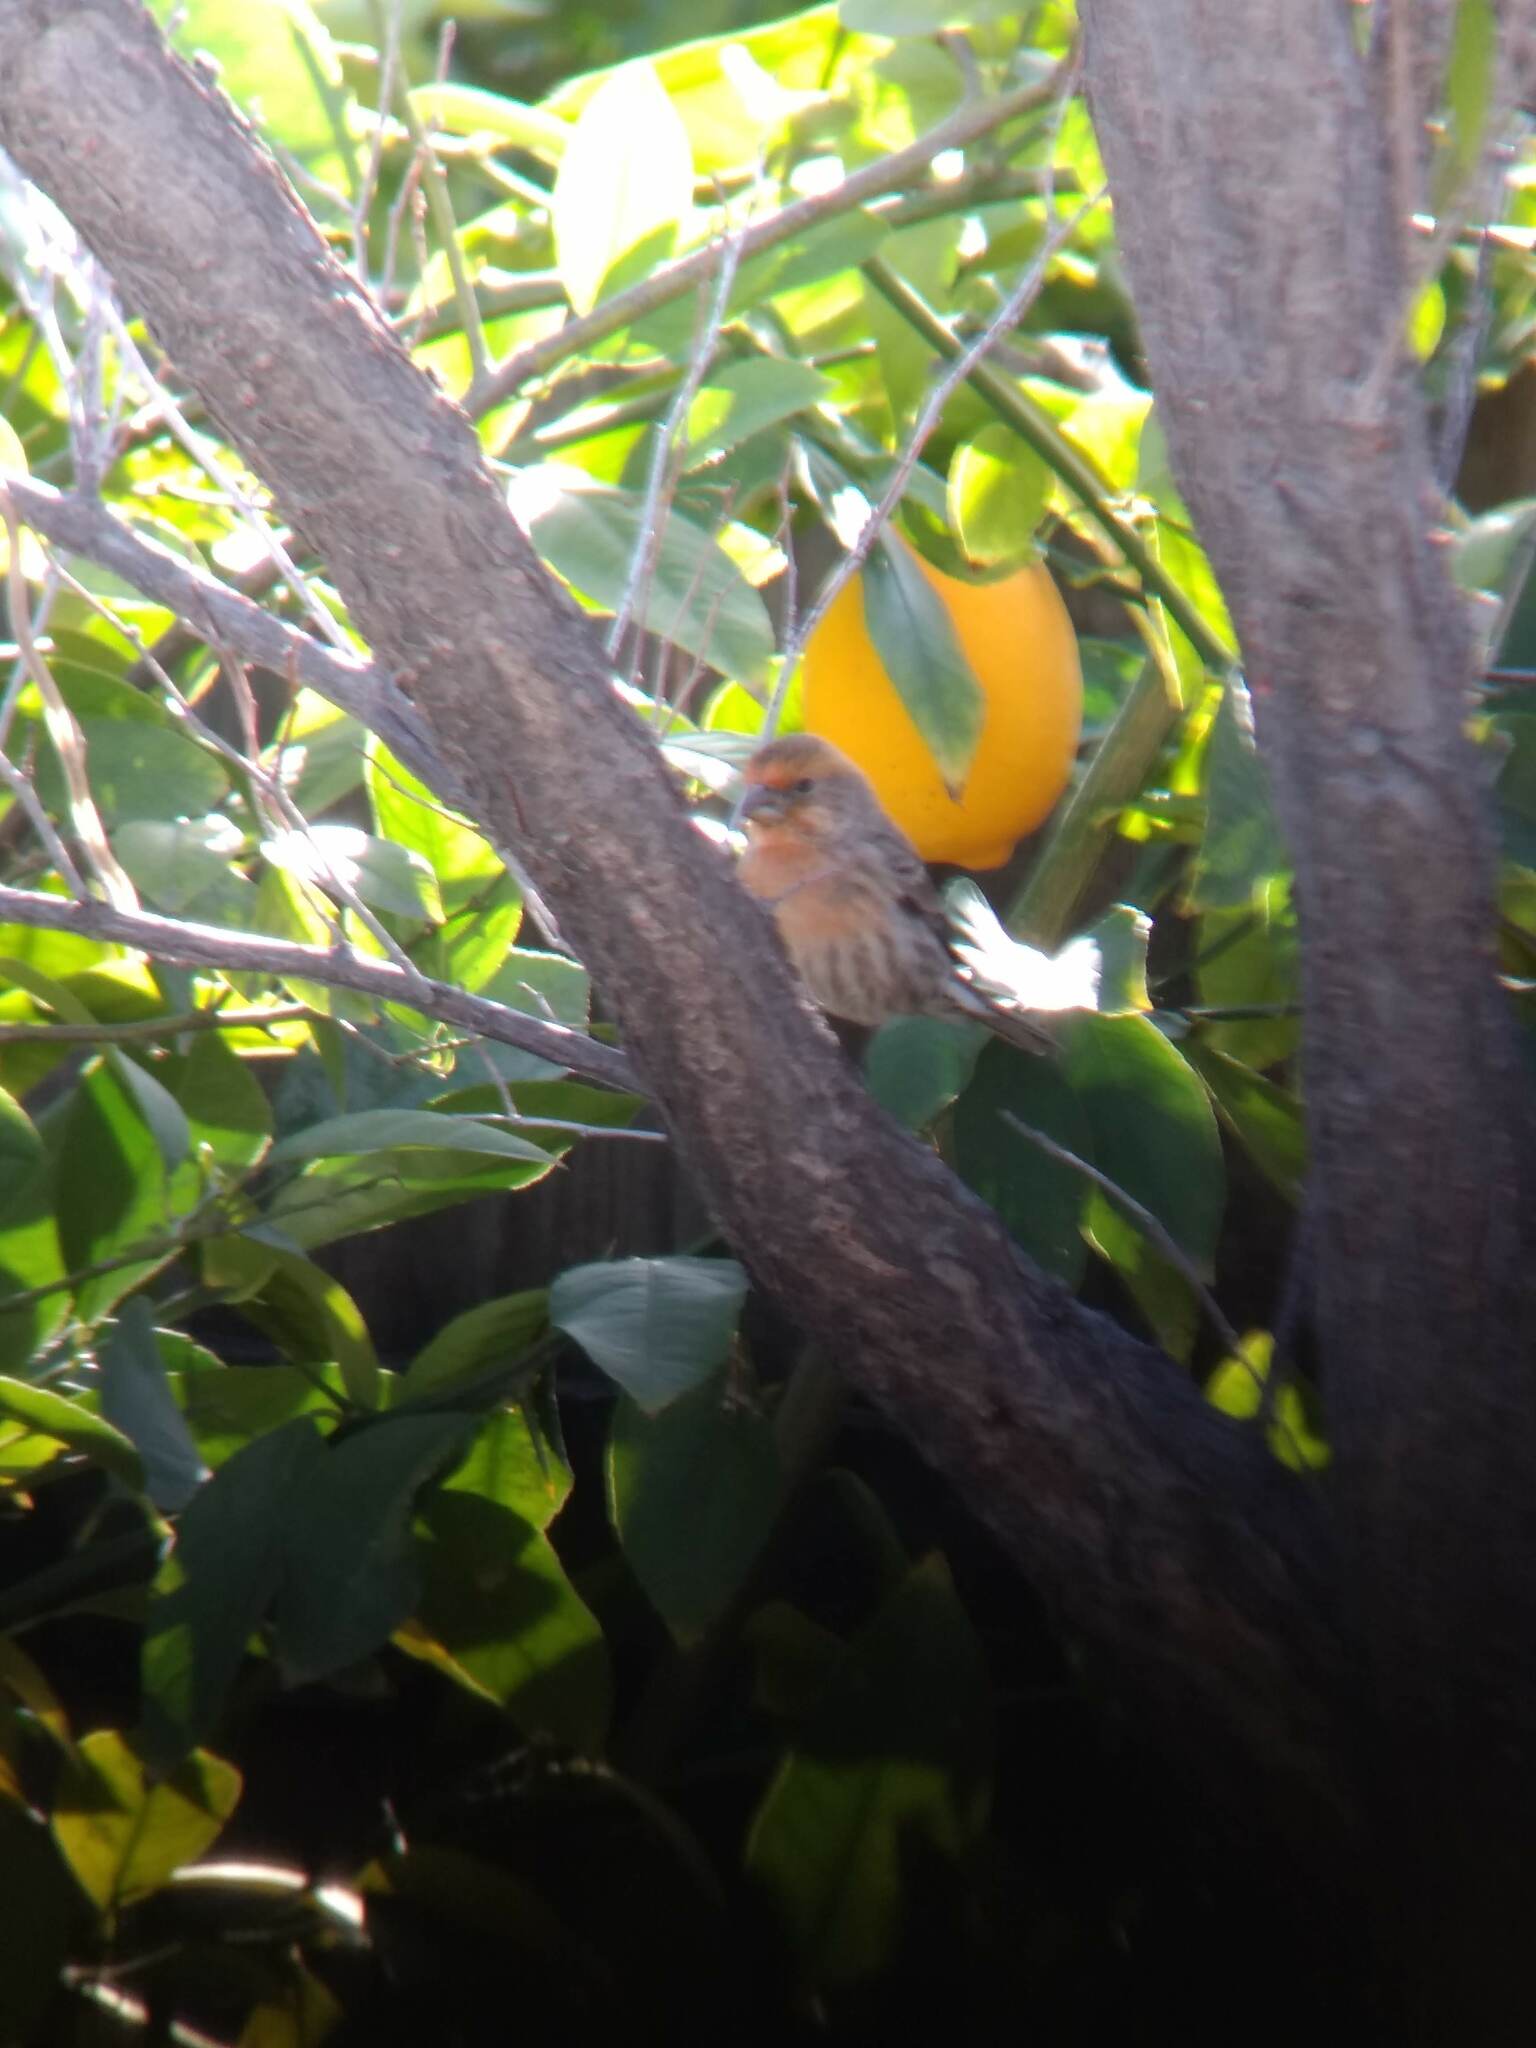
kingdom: Animalia
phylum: Chordata
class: Aves
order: Passeriformes
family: Fringillidae
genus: Haemorhous
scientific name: Haemorhous mexicanus
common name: House finch
